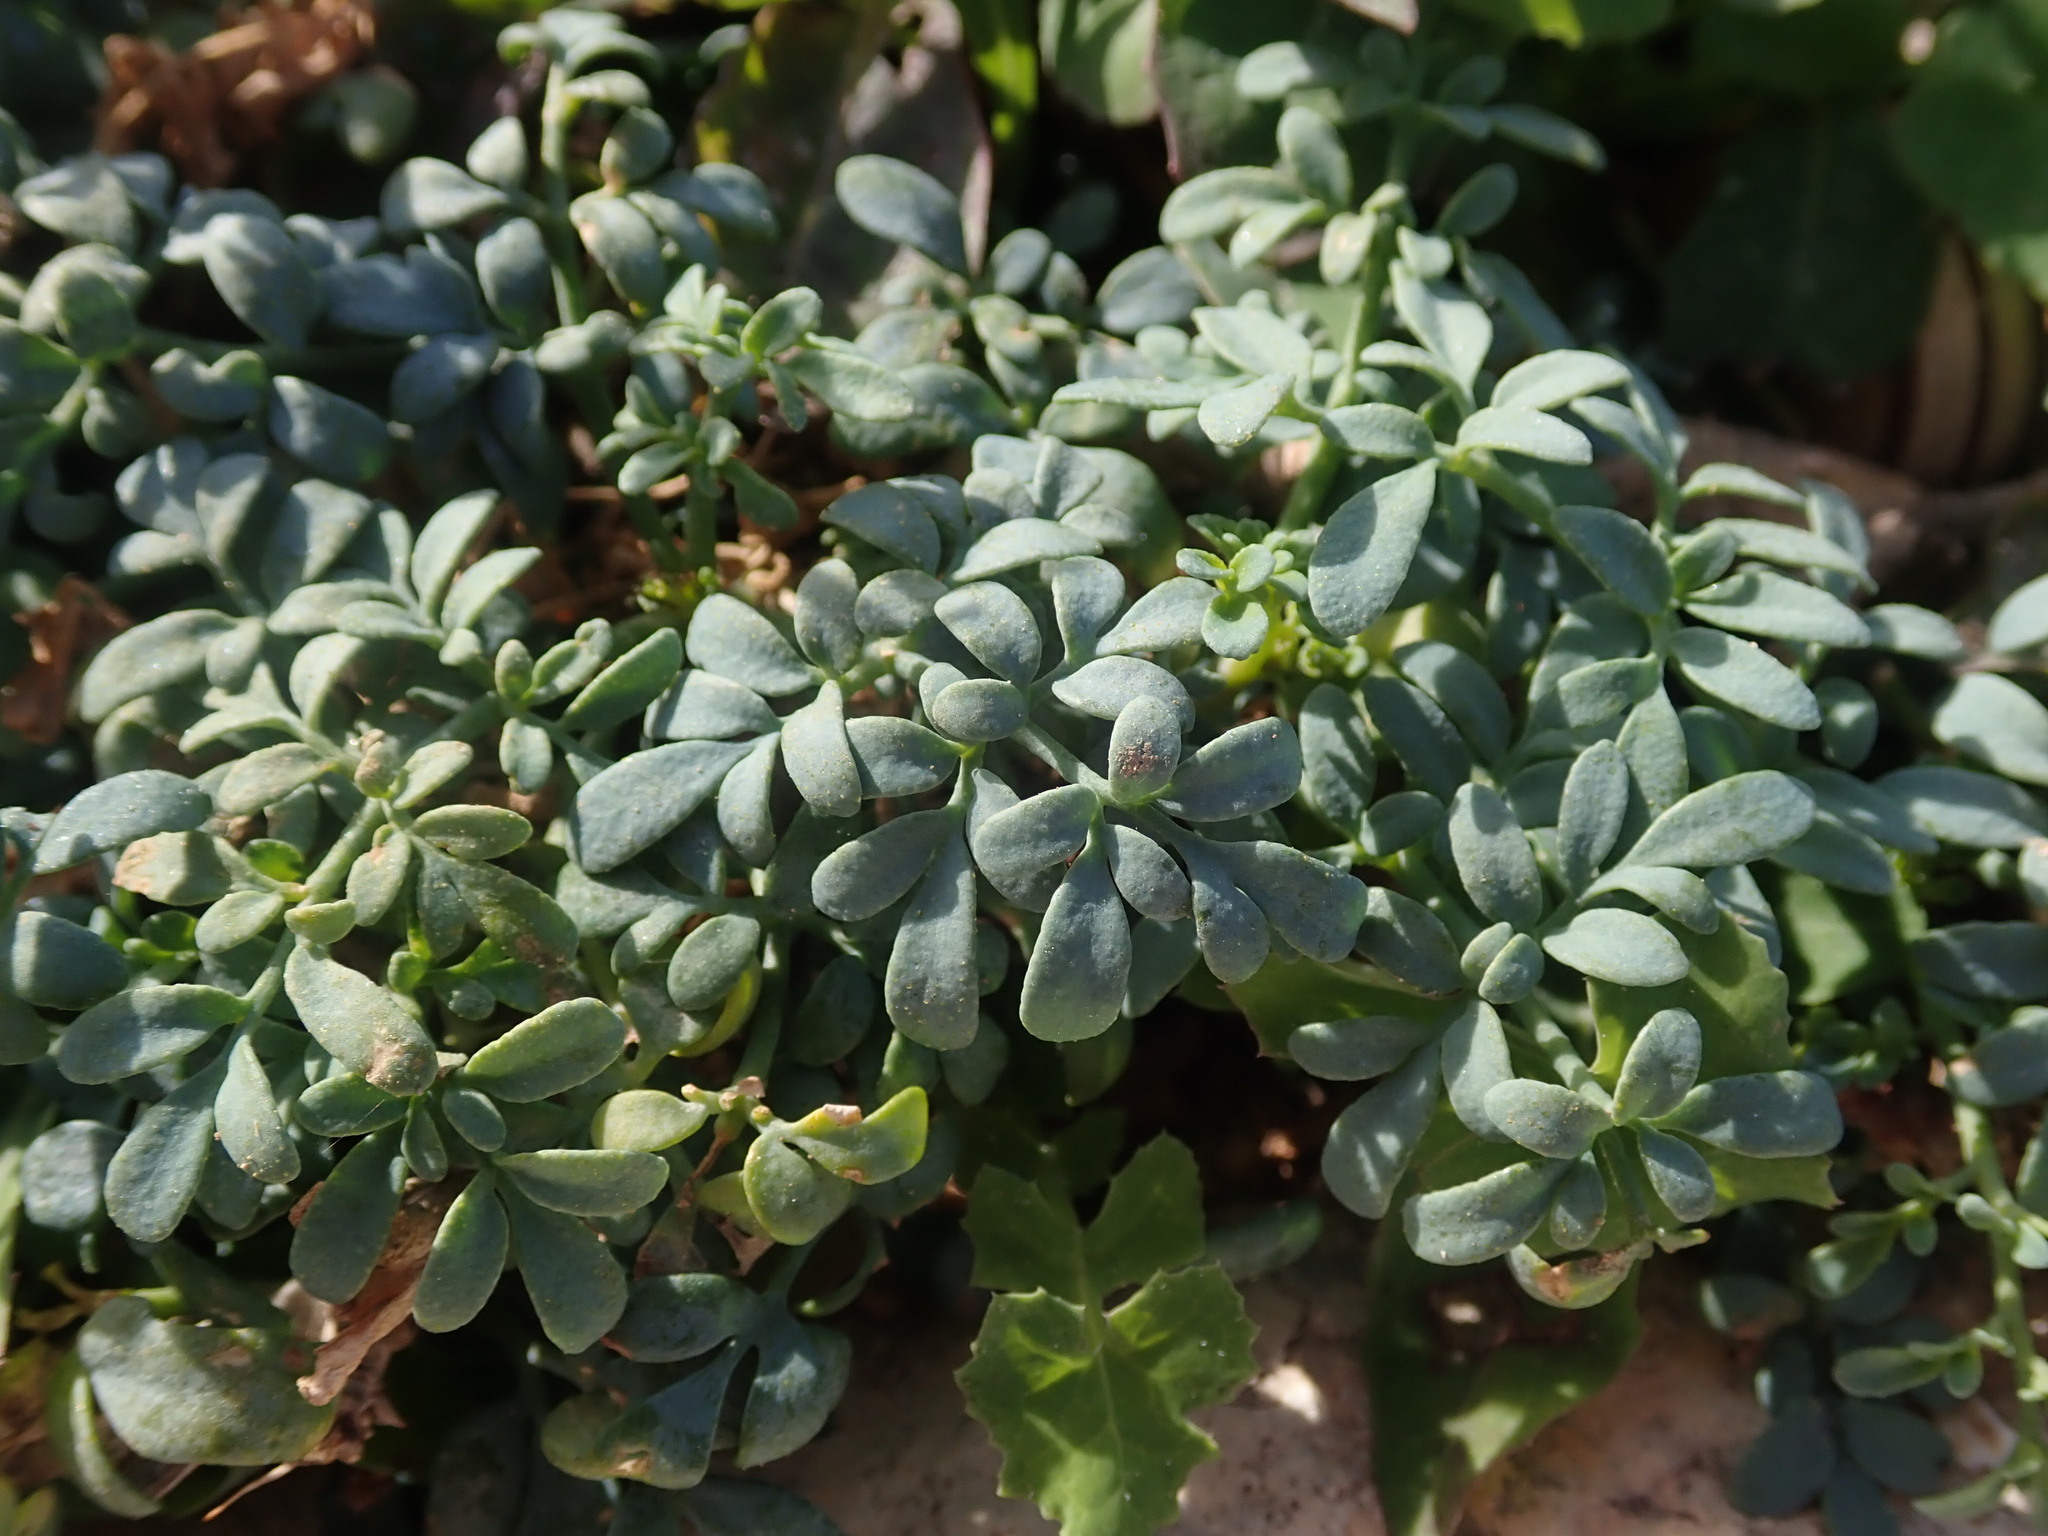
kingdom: Plantae
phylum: Tracheophyta
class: Magnoliopsida
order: Sapindales
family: Rutaceae
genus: Ruta
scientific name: Ruta chalepensis
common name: Fringed rue
